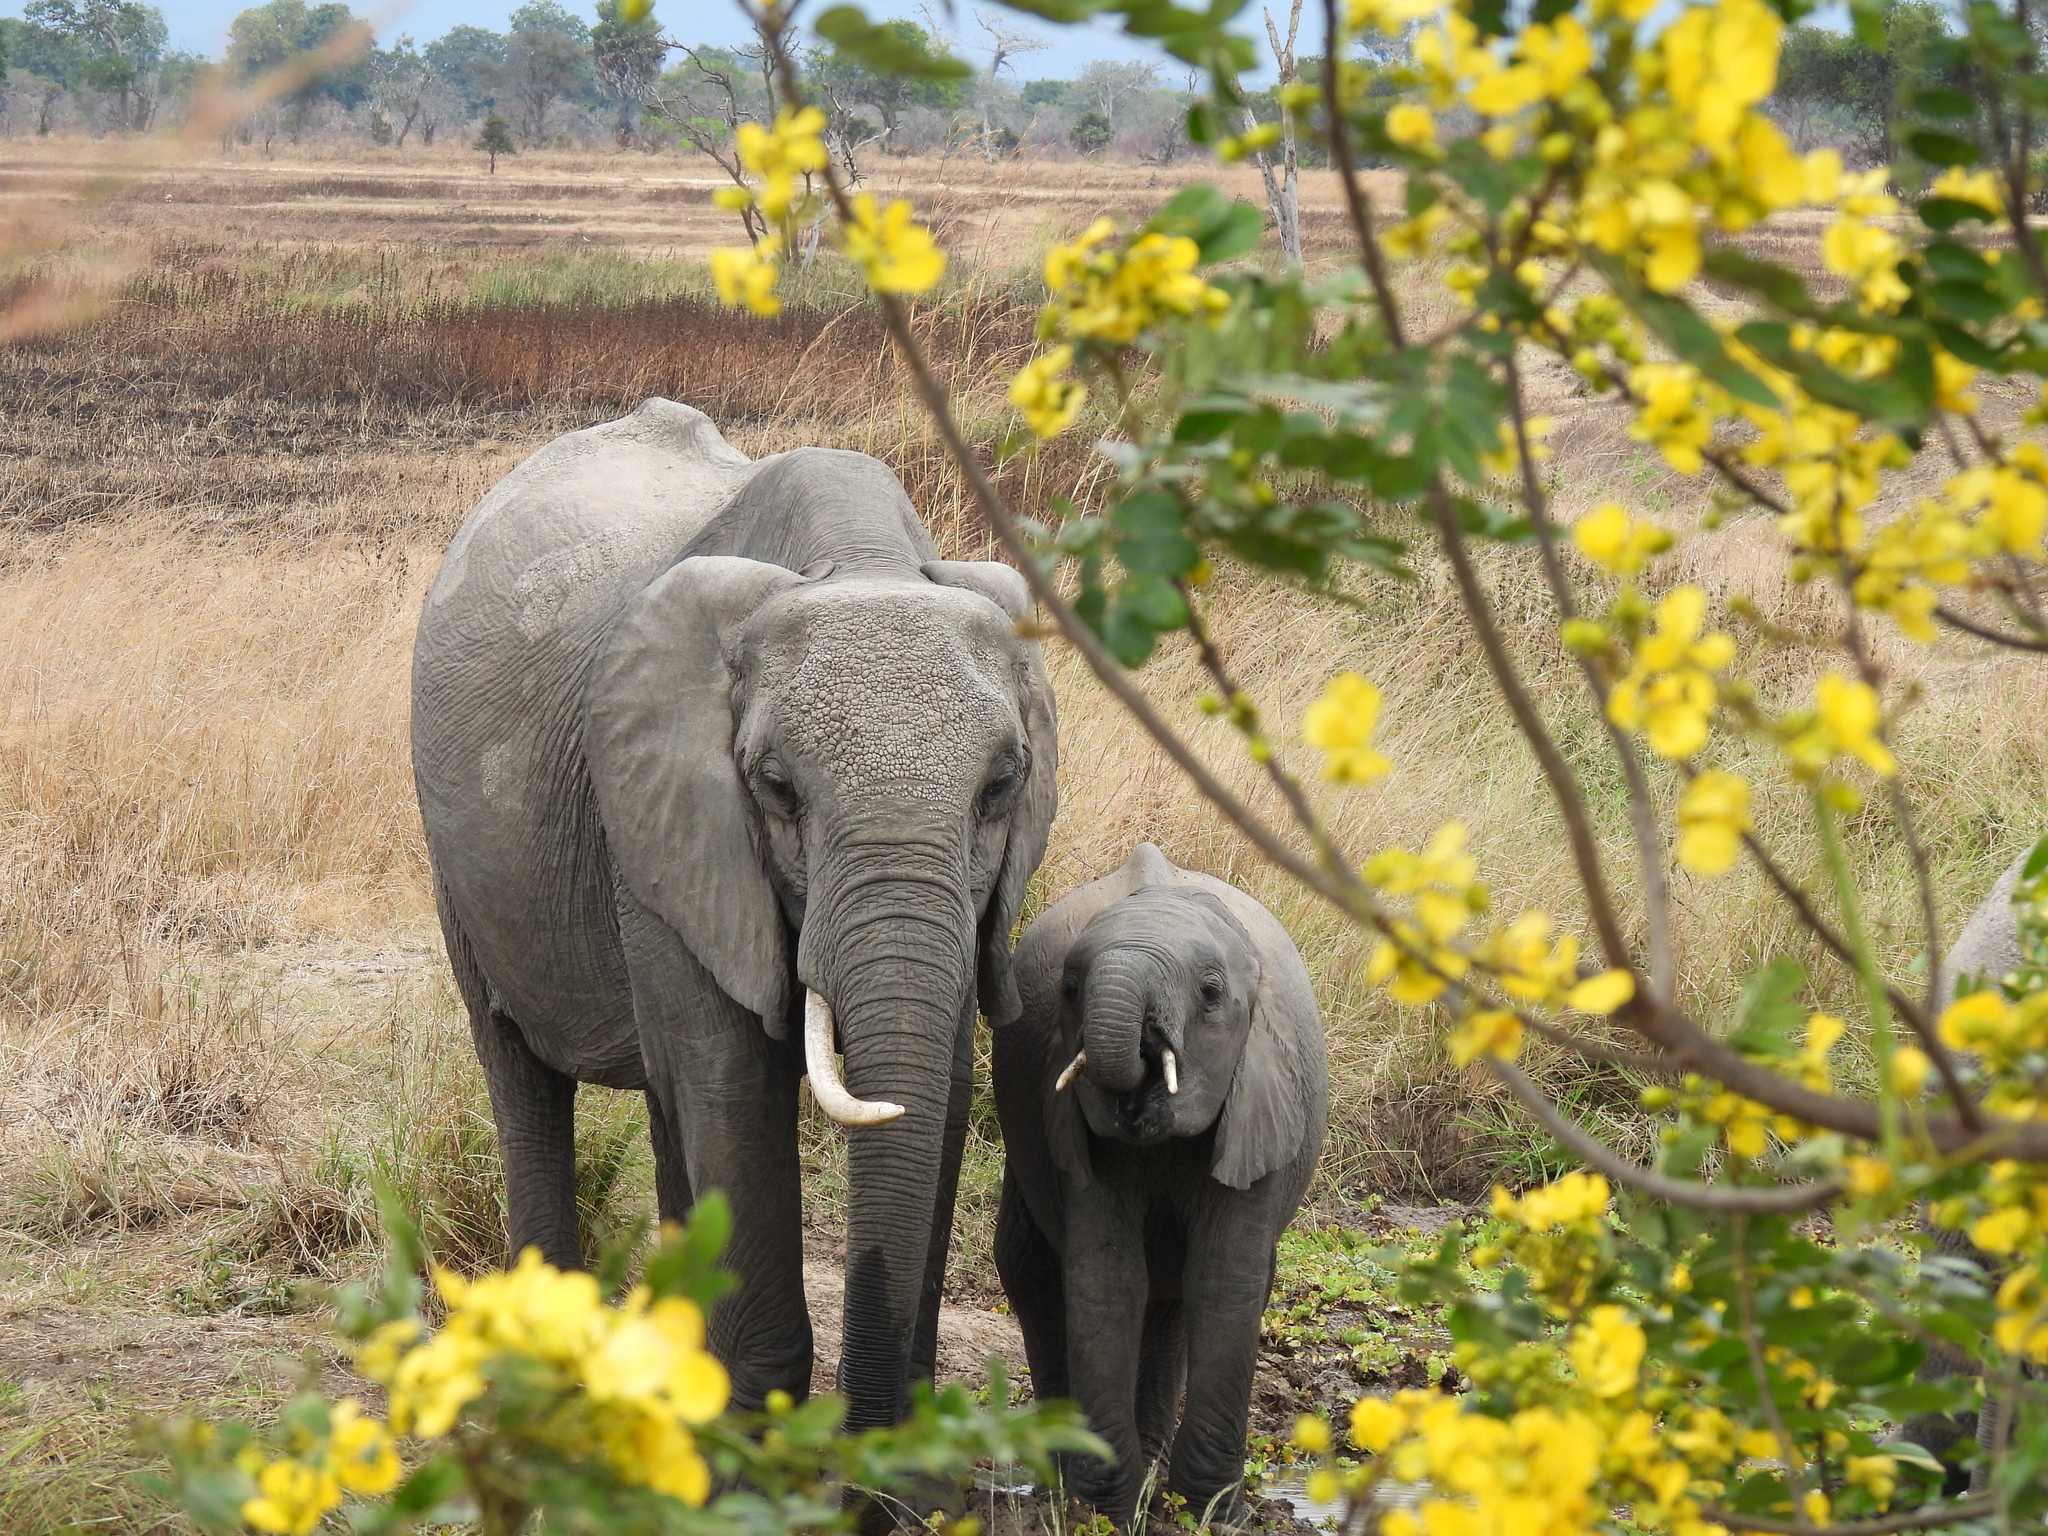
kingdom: Animalia
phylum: Chordata
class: Mammalia
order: Proboscidea
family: Elephantidae
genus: Loxodonta
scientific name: Loxodonta africana
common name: African elephant
